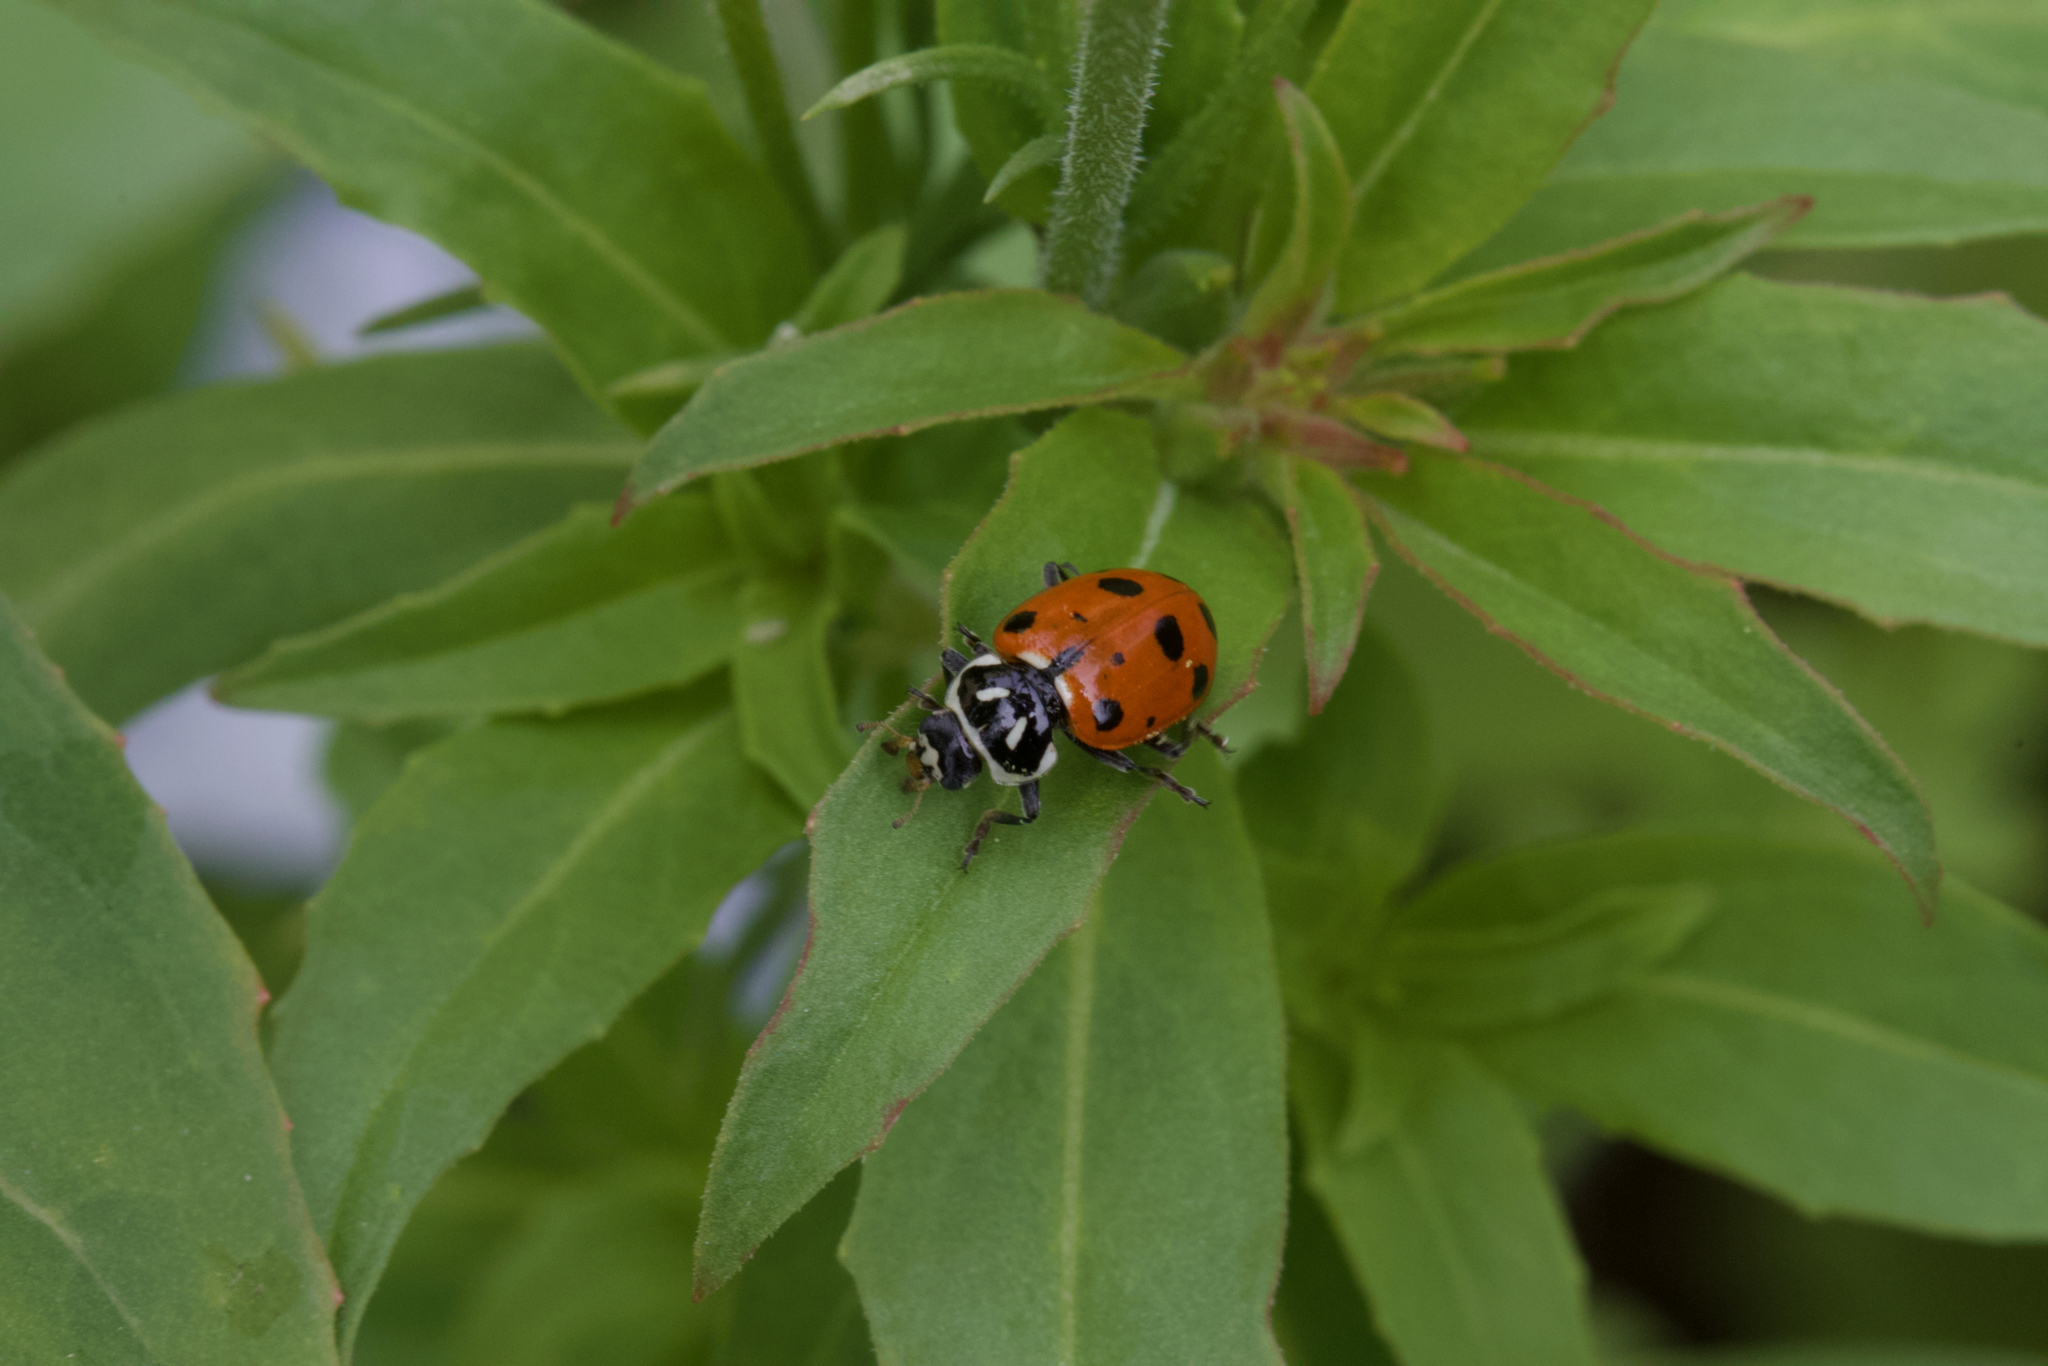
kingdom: Animalia
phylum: Arthropoda
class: Insecta
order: Coleoptera
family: Coccinellidae
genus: Hippodamia
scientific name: Hippodamia convergens
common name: Convergent lady beetle
